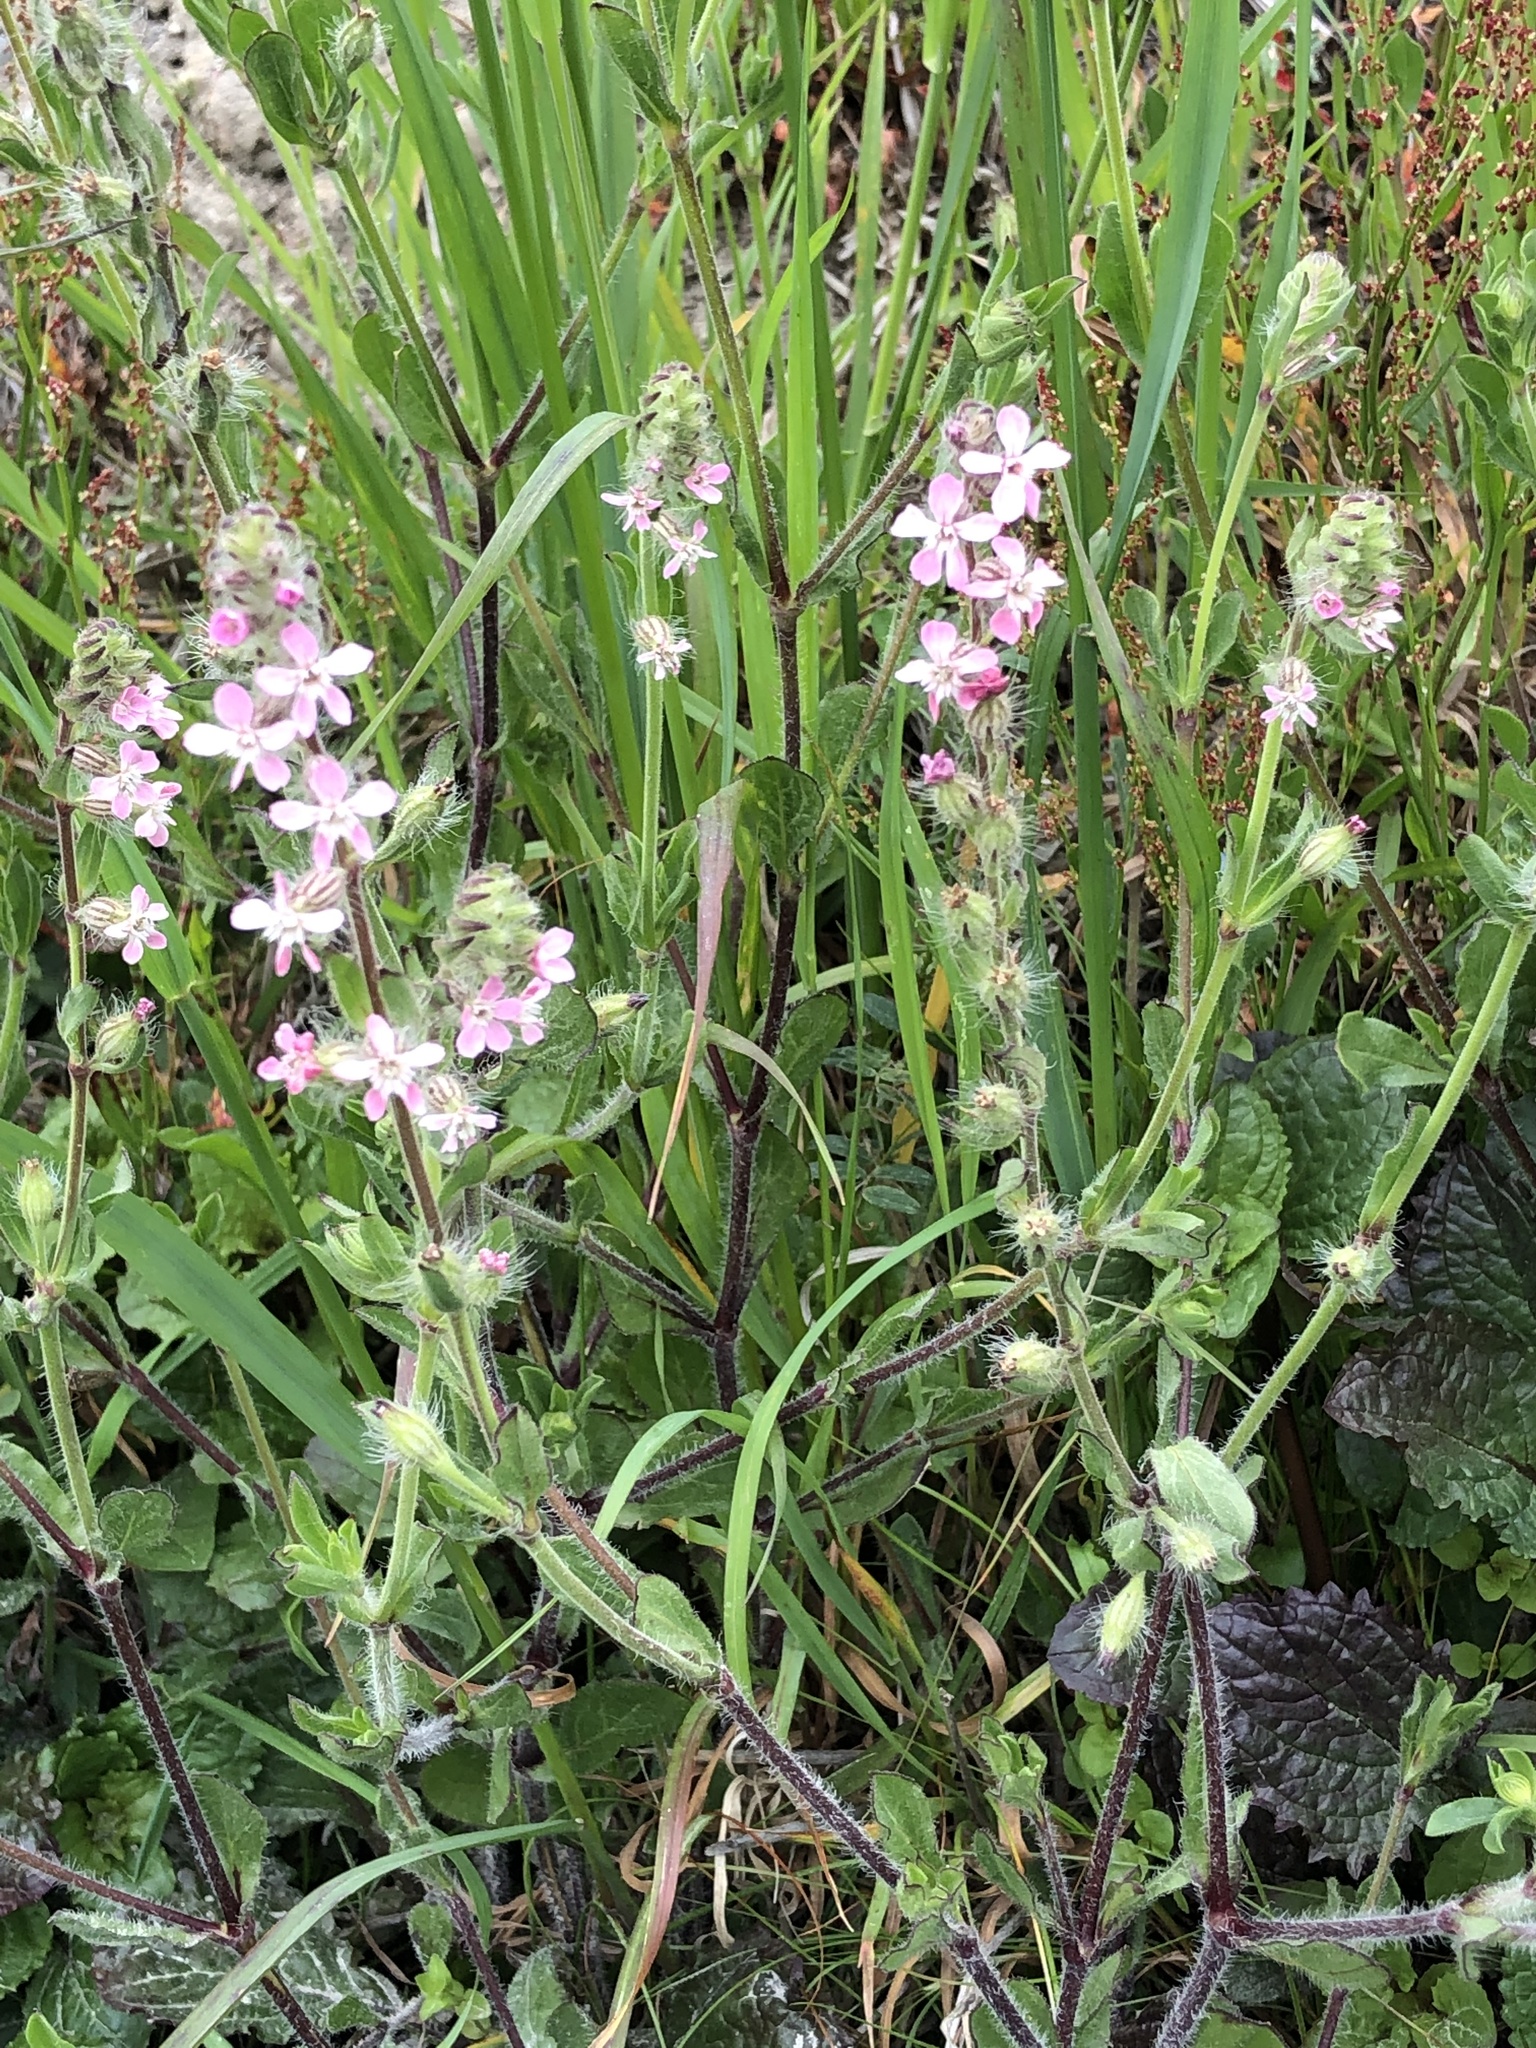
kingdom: Plantae
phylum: Tracheophyta
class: Magnoliopsida
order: Caryophyllales
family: Caryophyllaceae
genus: Silene
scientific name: Silene gallica
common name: Small-flowered catchfly
